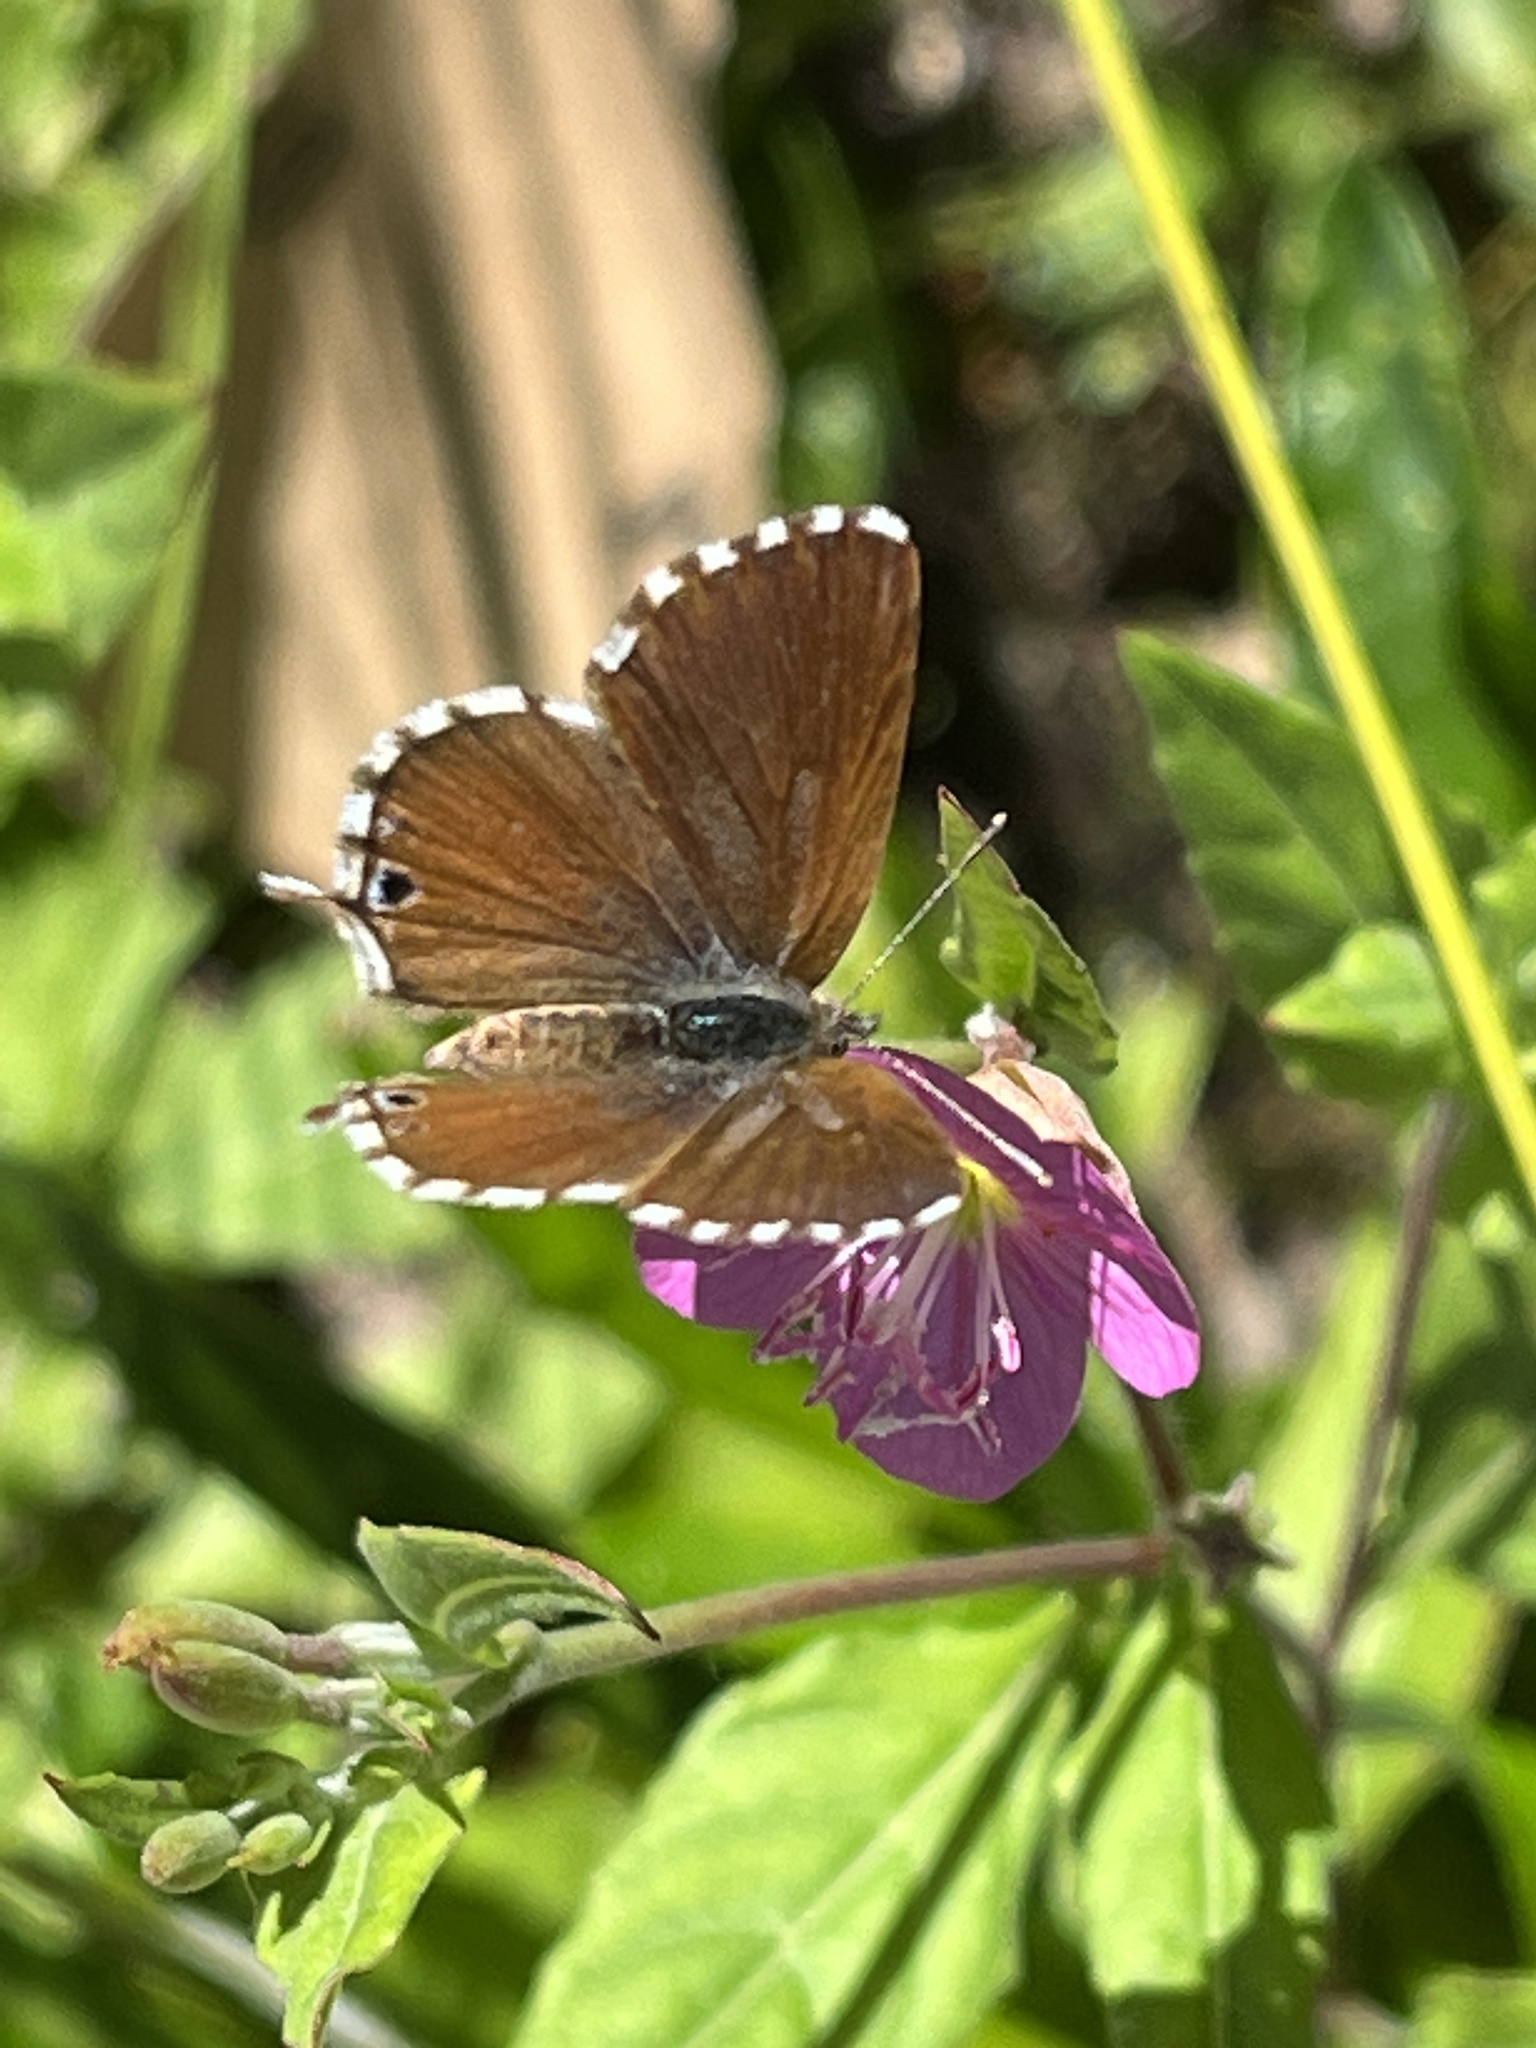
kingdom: Animalia
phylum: Arthropoda
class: Insecta
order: Lepidoptera
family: Lycaenidae
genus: Cacyreus
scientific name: Cacyreus fracta
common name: Water bronze
